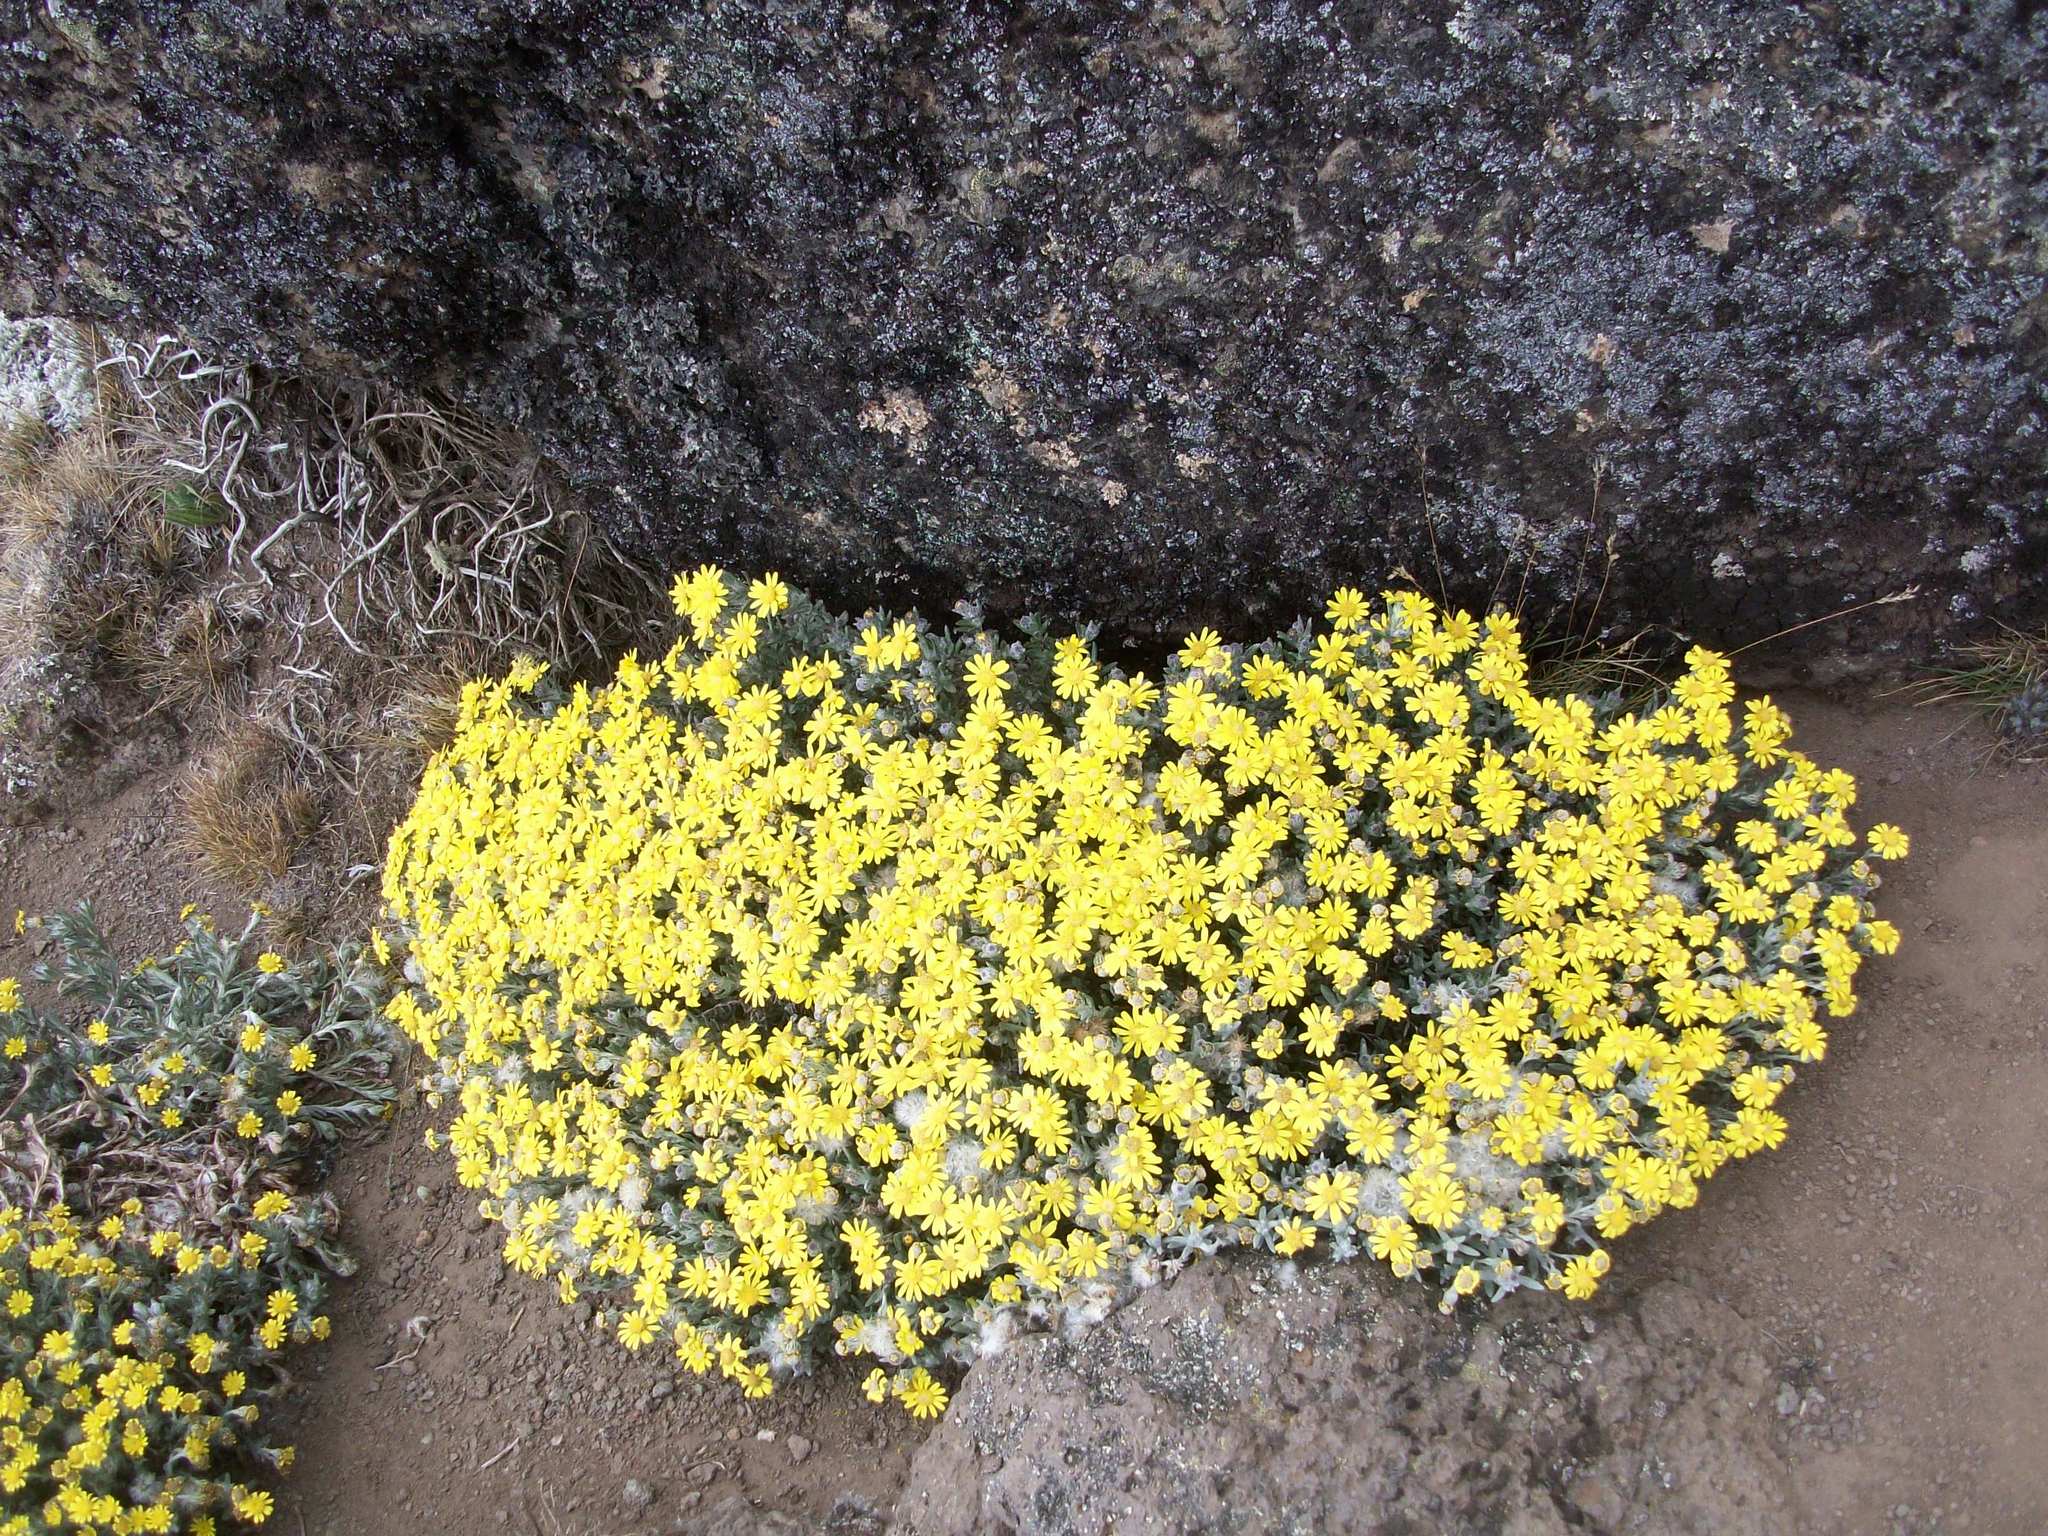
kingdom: Plantae
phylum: Tracheophyta
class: Magnoliopsida
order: Asterales
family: Asteraceae
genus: Senecio
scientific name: Senecio telekii
